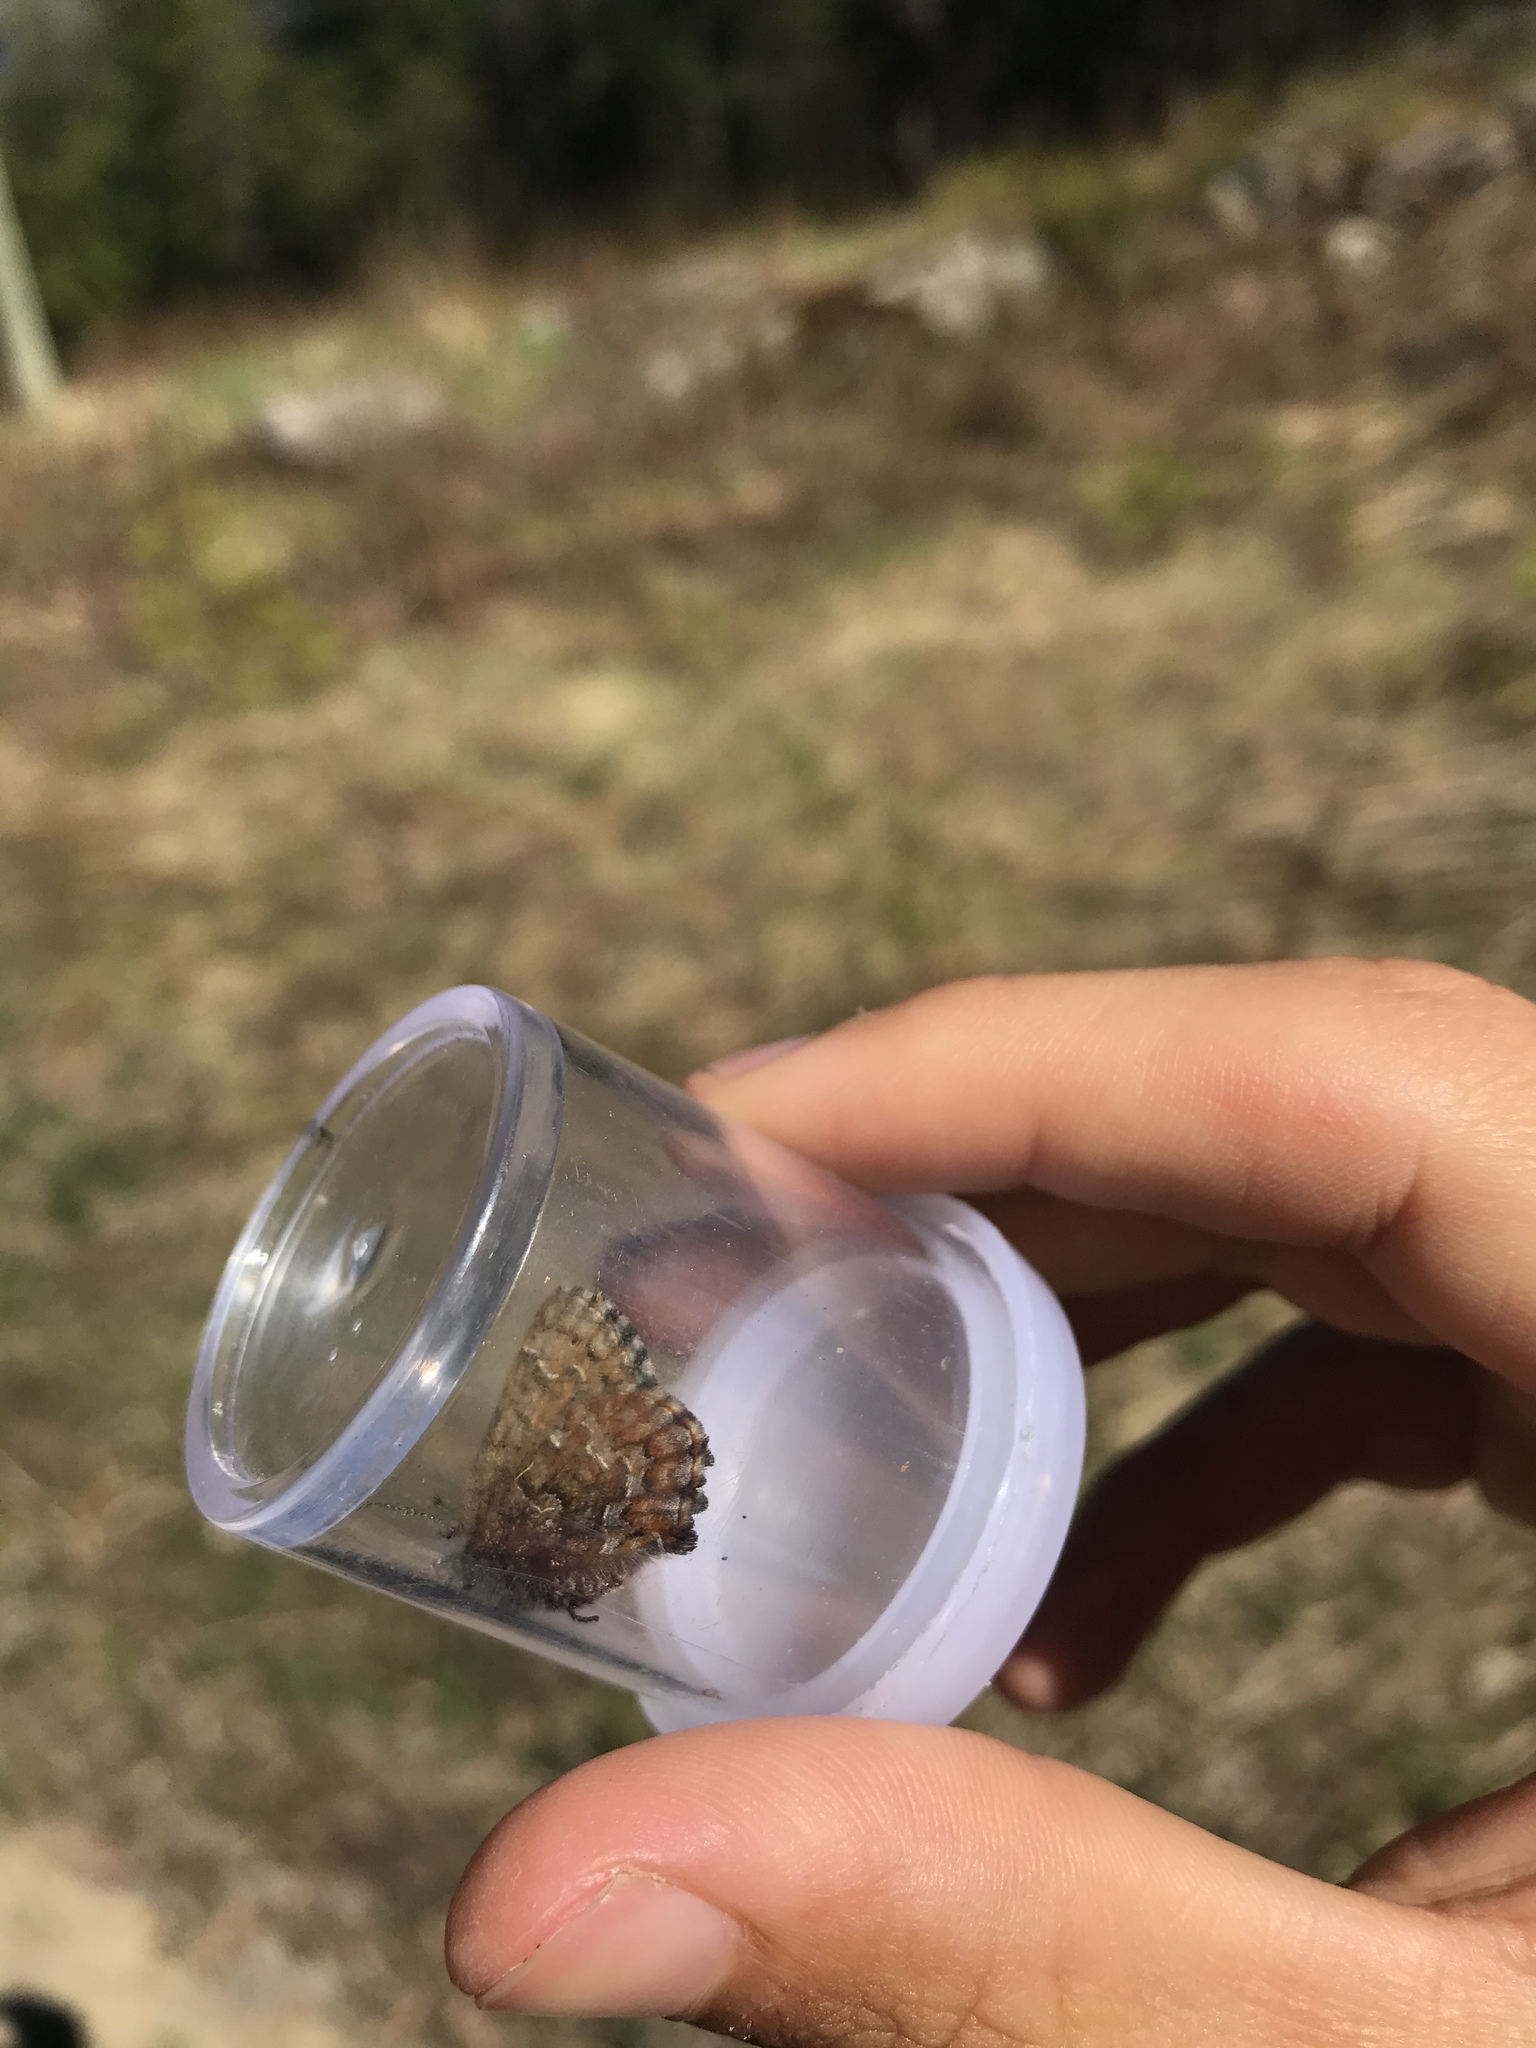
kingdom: Animalia
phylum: Arthropoda
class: Insecta
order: Lepidoptera
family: Lycaenidae
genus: Incisalia
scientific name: Incisalia niphon
